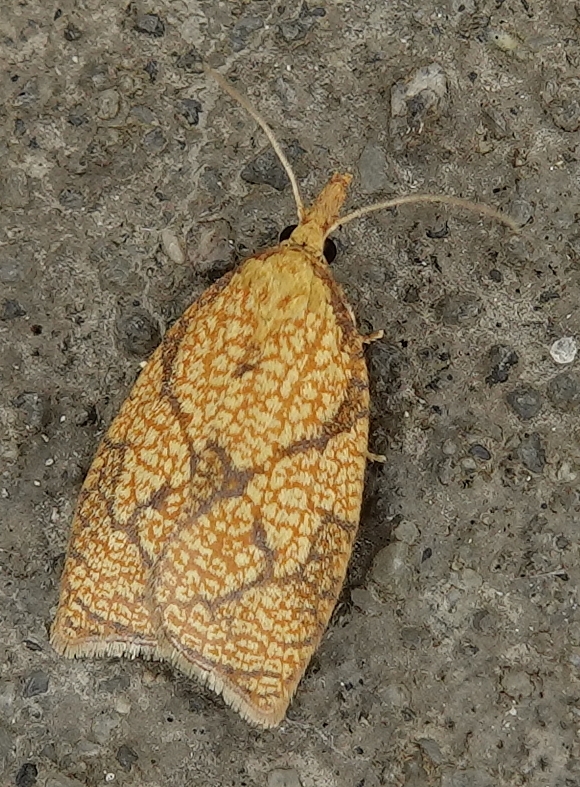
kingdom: Animalia
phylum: Arthropoda
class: Insecta
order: Lepidoptera
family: Tortricidae
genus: Cenopis
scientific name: Cenopis reticulatana
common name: Reticulated fruitworm moth
